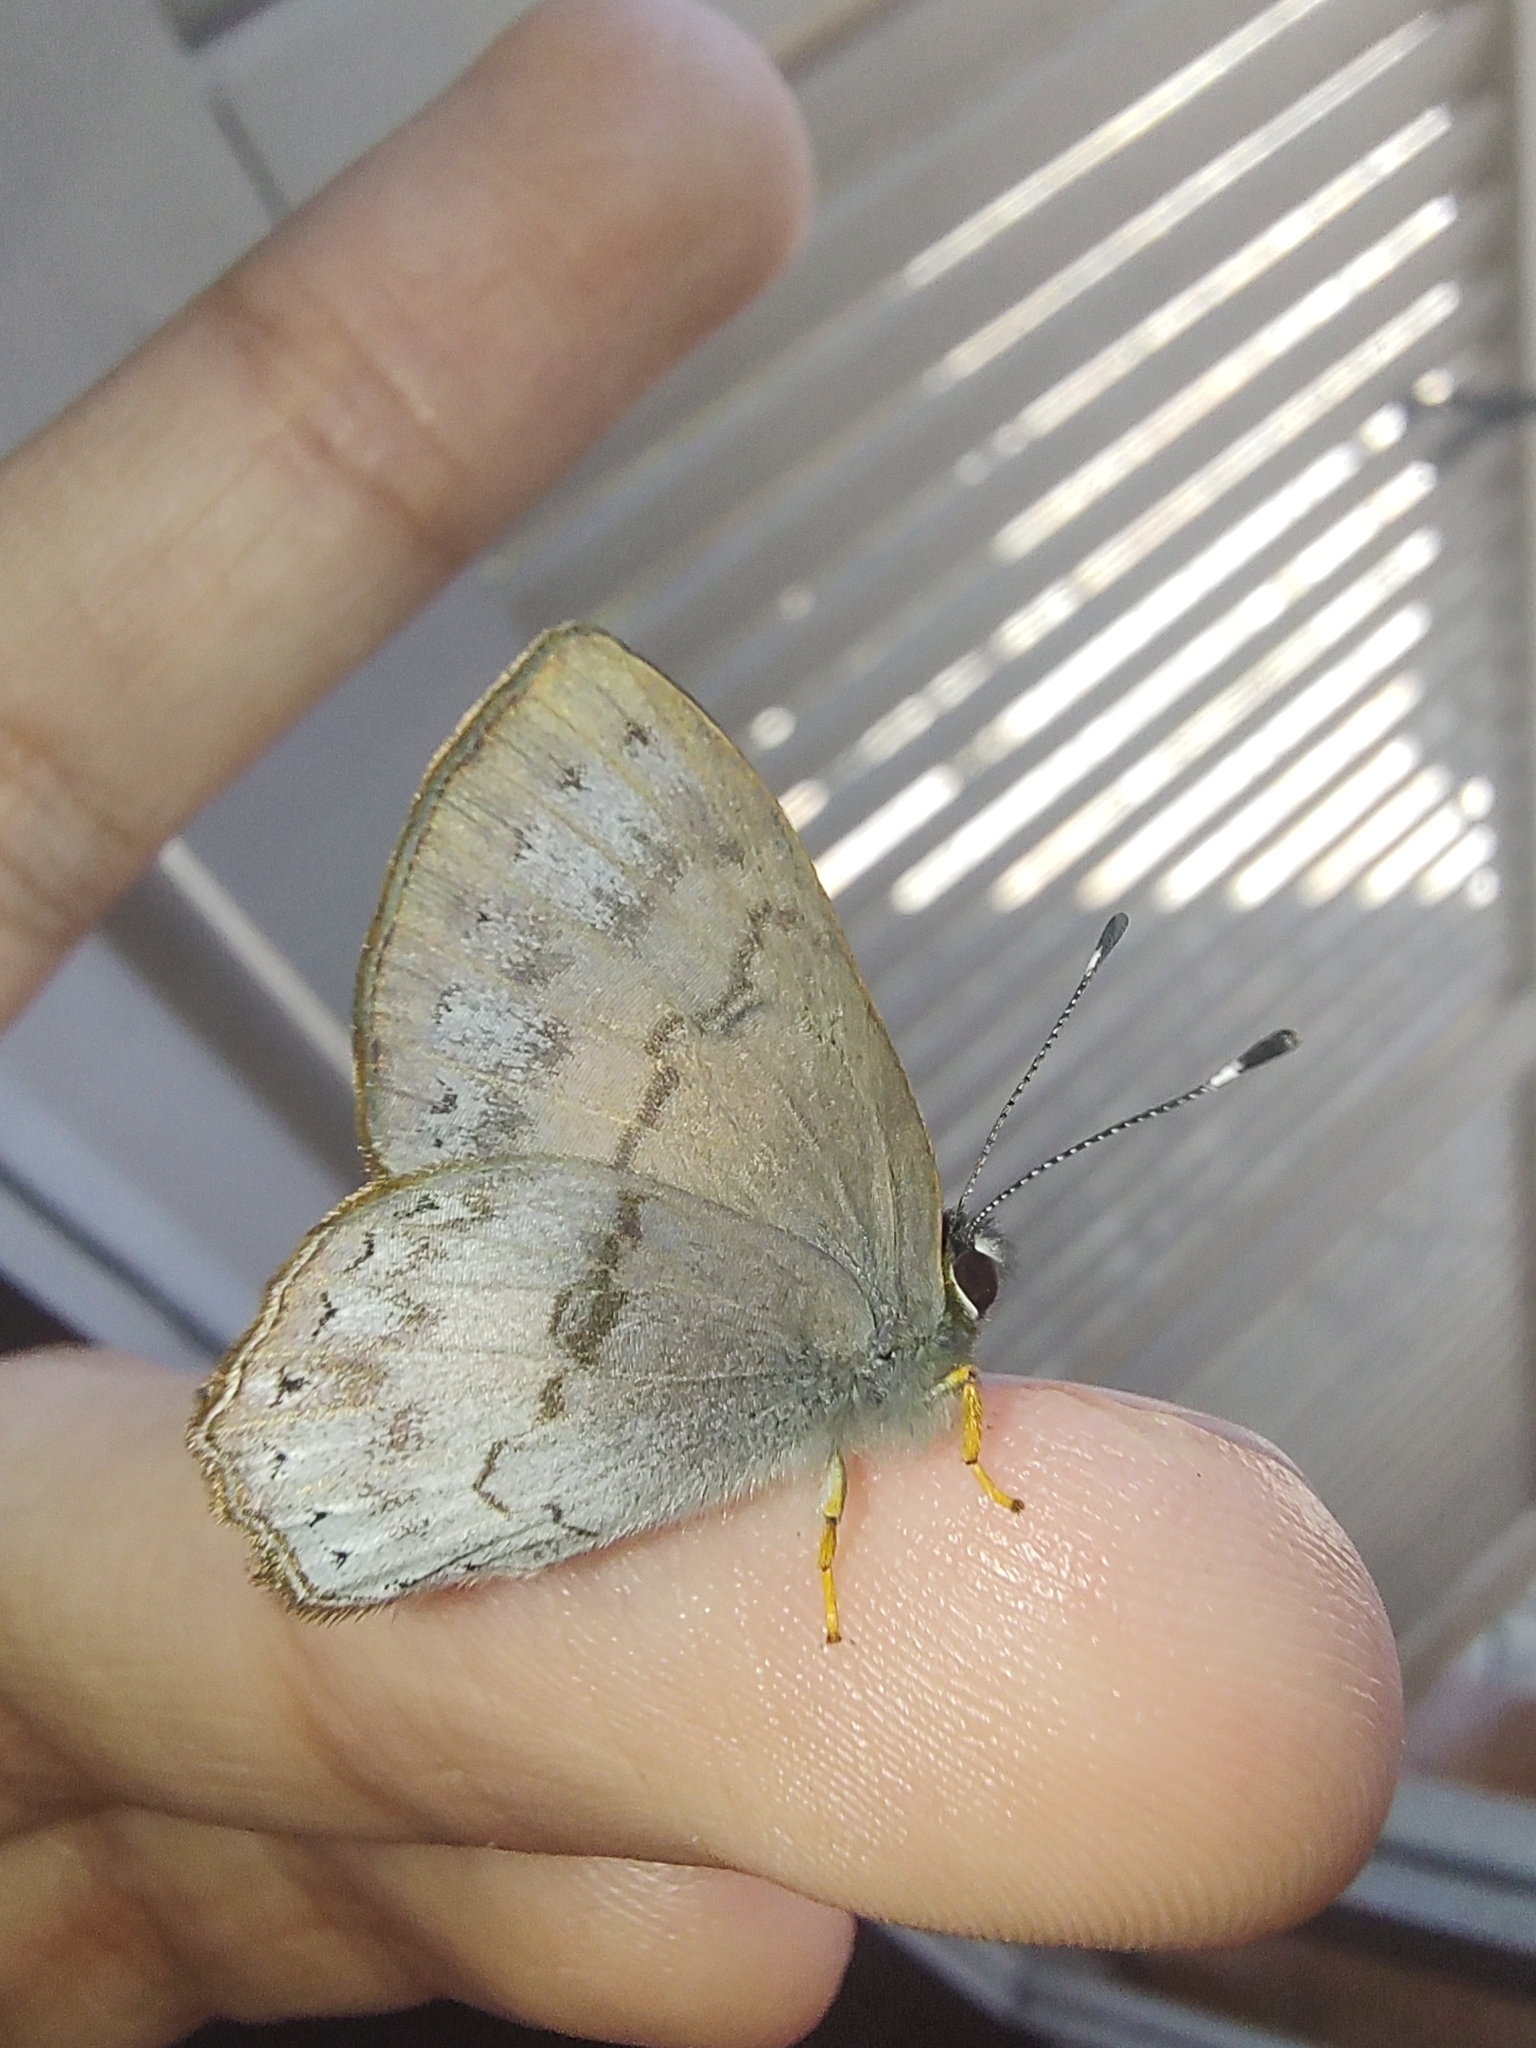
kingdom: Animalia
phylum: Arthropoda
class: Insecta
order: Lepidoptera
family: Lycaenidae
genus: Euselasia
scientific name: Euselasia eucerus
